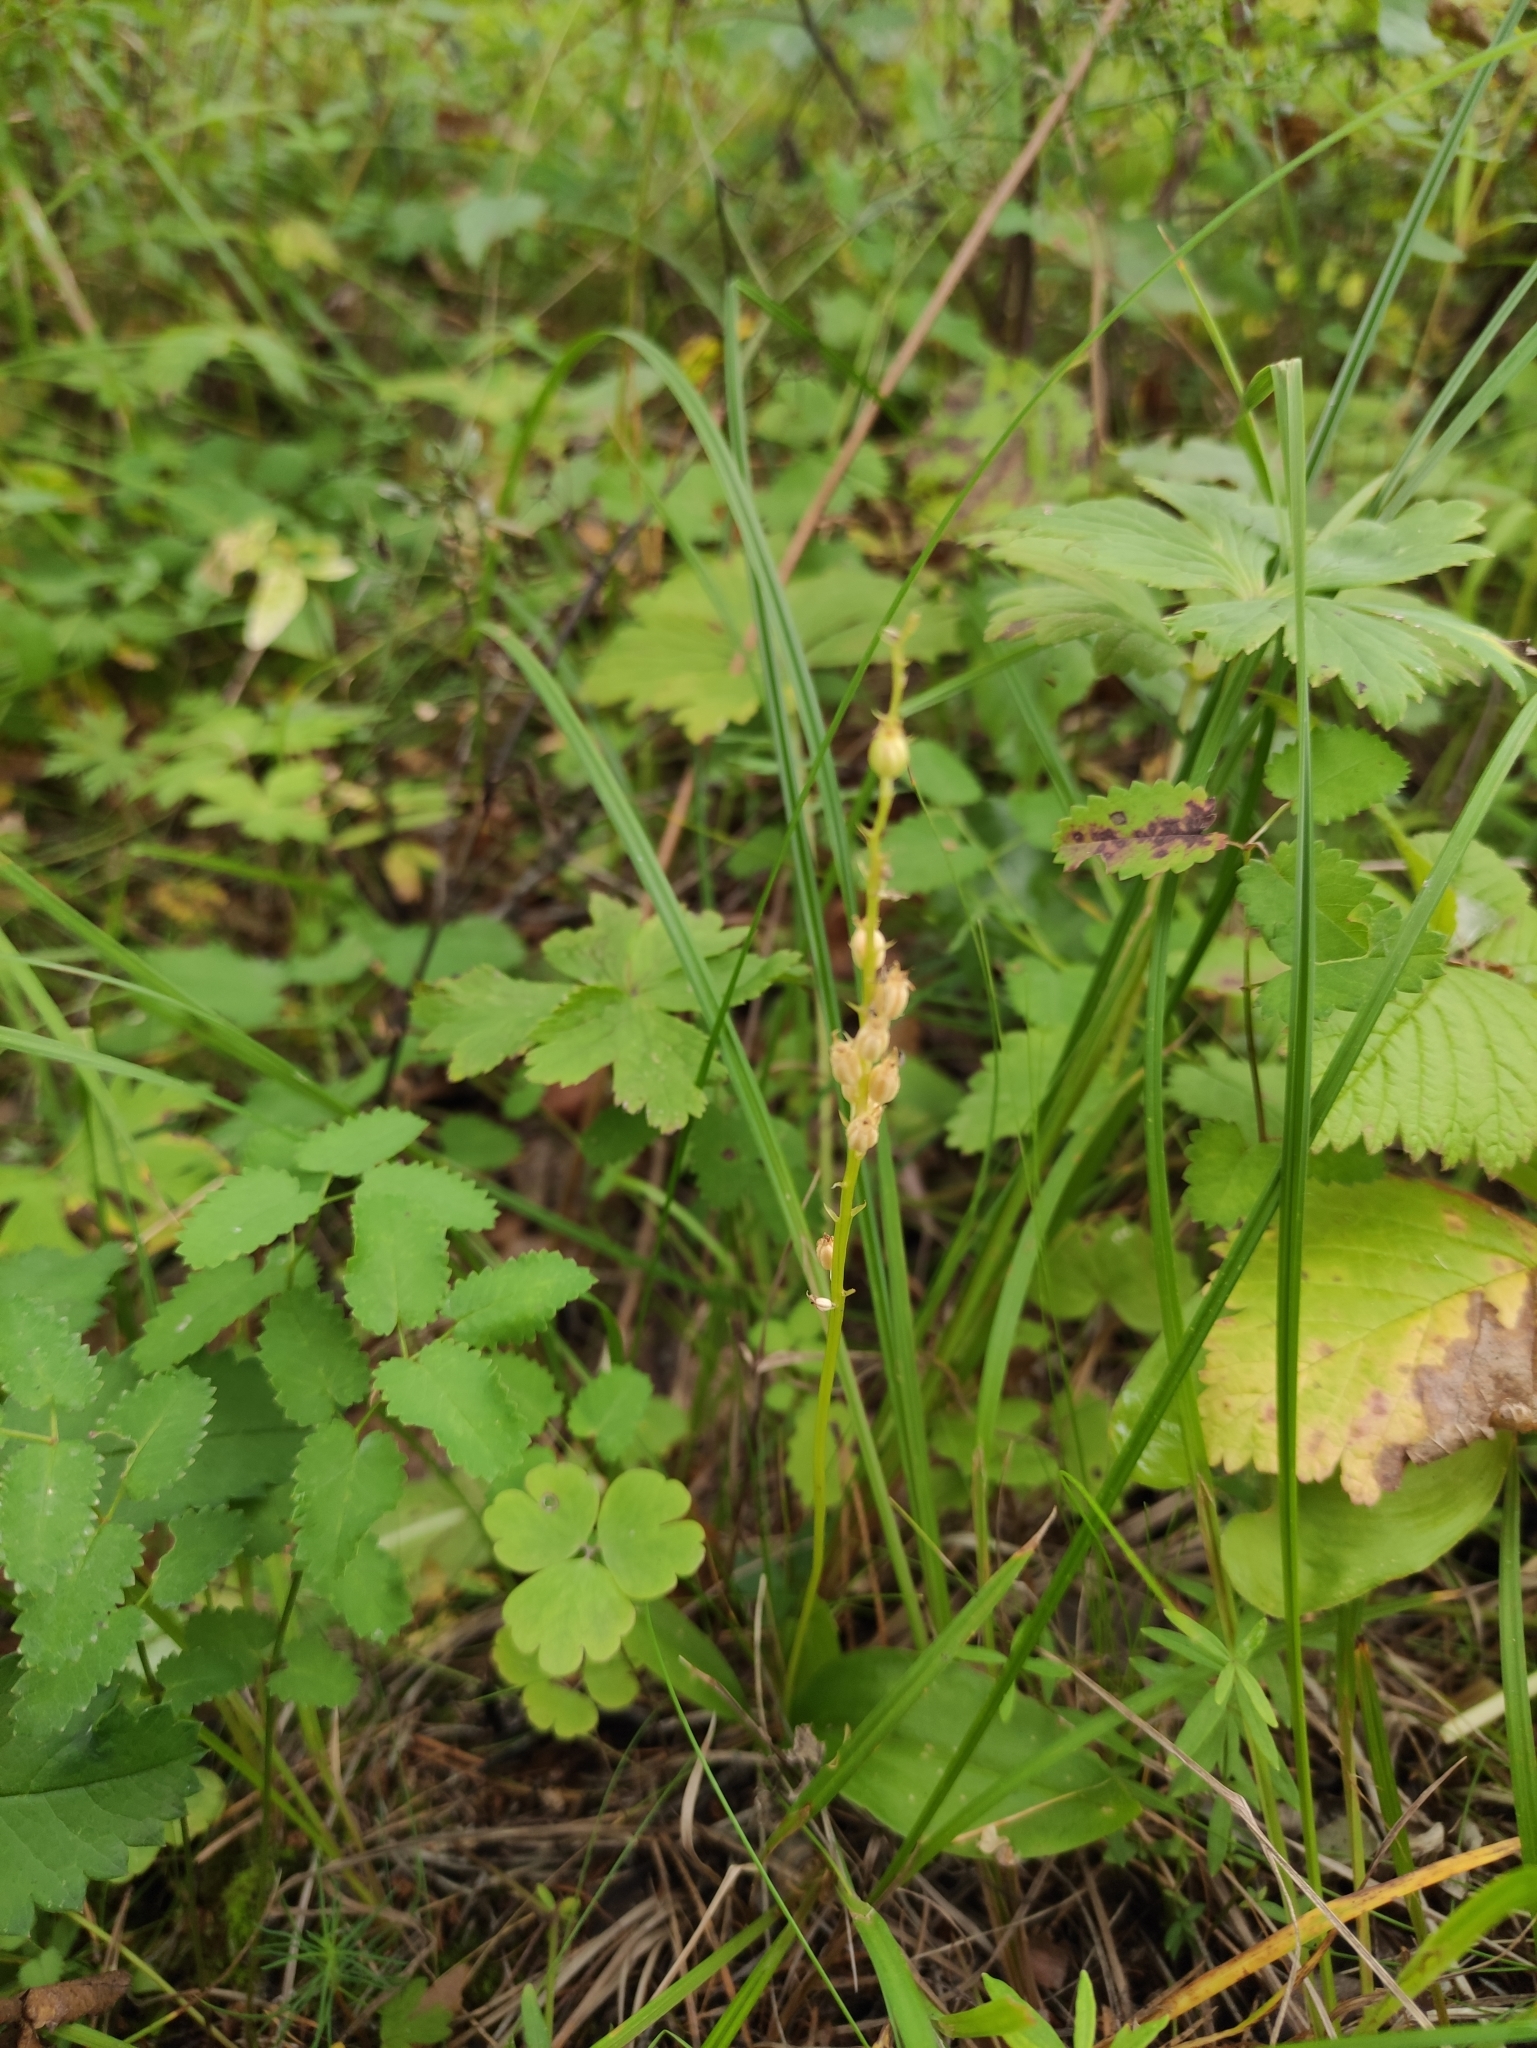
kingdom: Plantae
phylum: Tracheophyta
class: Liliopsida
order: Asparagales
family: Orchidaceae
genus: Malaxis
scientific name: Malaxis monophyllos
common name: White adder's-mouth
